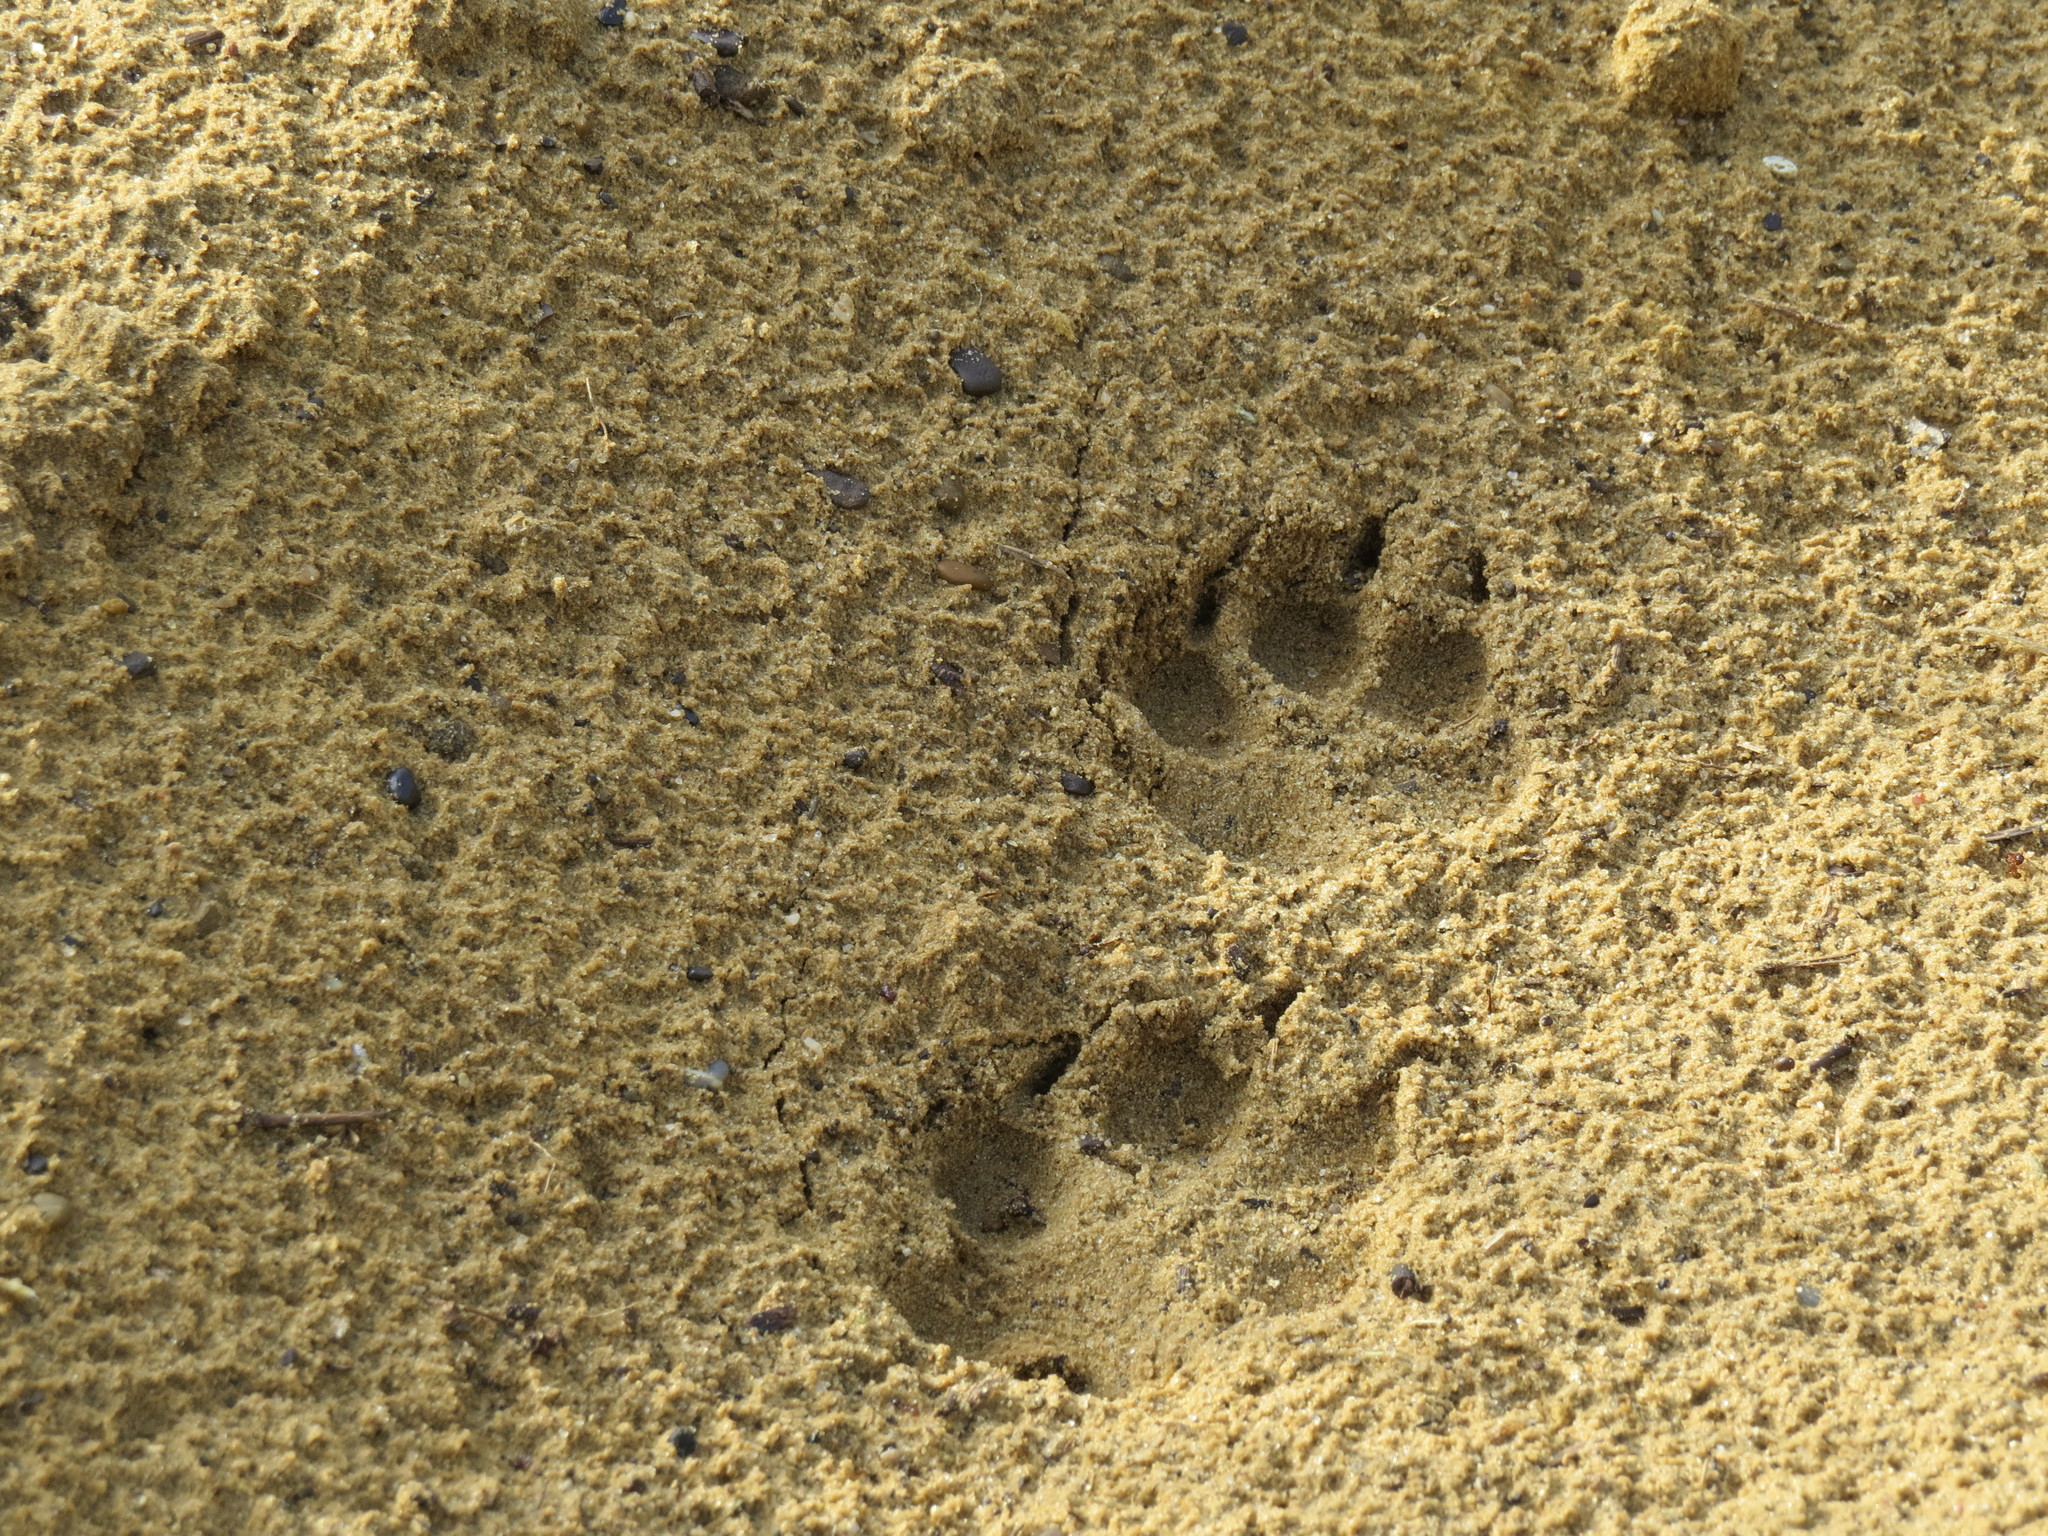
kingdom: Animalia
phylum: Chordata
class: Mammalia
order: Carnivora
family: Canidae
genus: Canis
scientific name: Canis latrans
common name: Coyote
